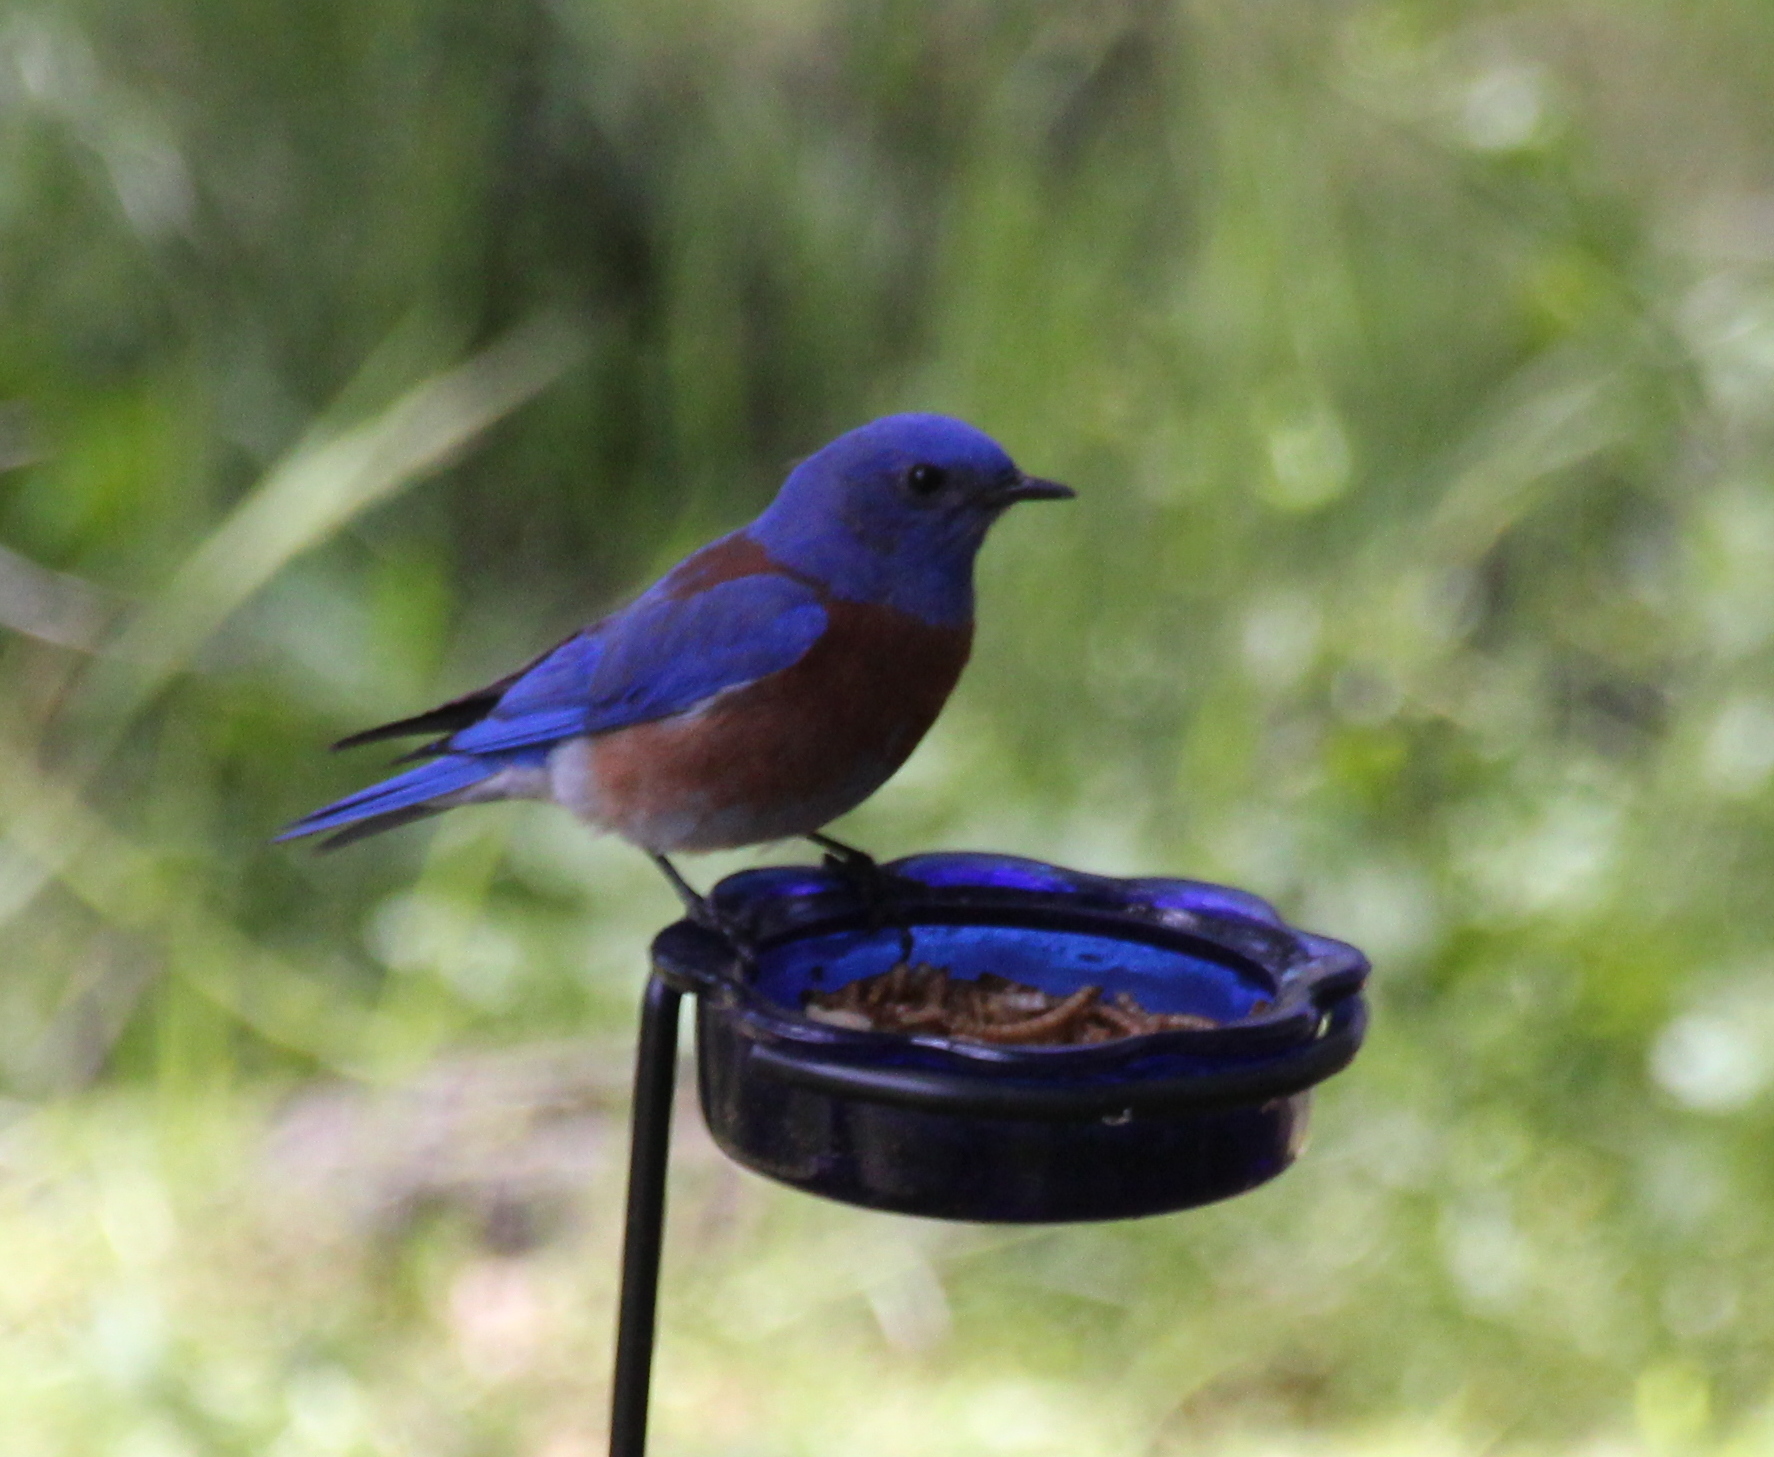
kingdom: Animalia
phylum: Chordata
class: Aves
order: Passeriformes
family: Turdidae
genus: Sialia
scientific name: Sialia mexicana
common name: Western bluebird
